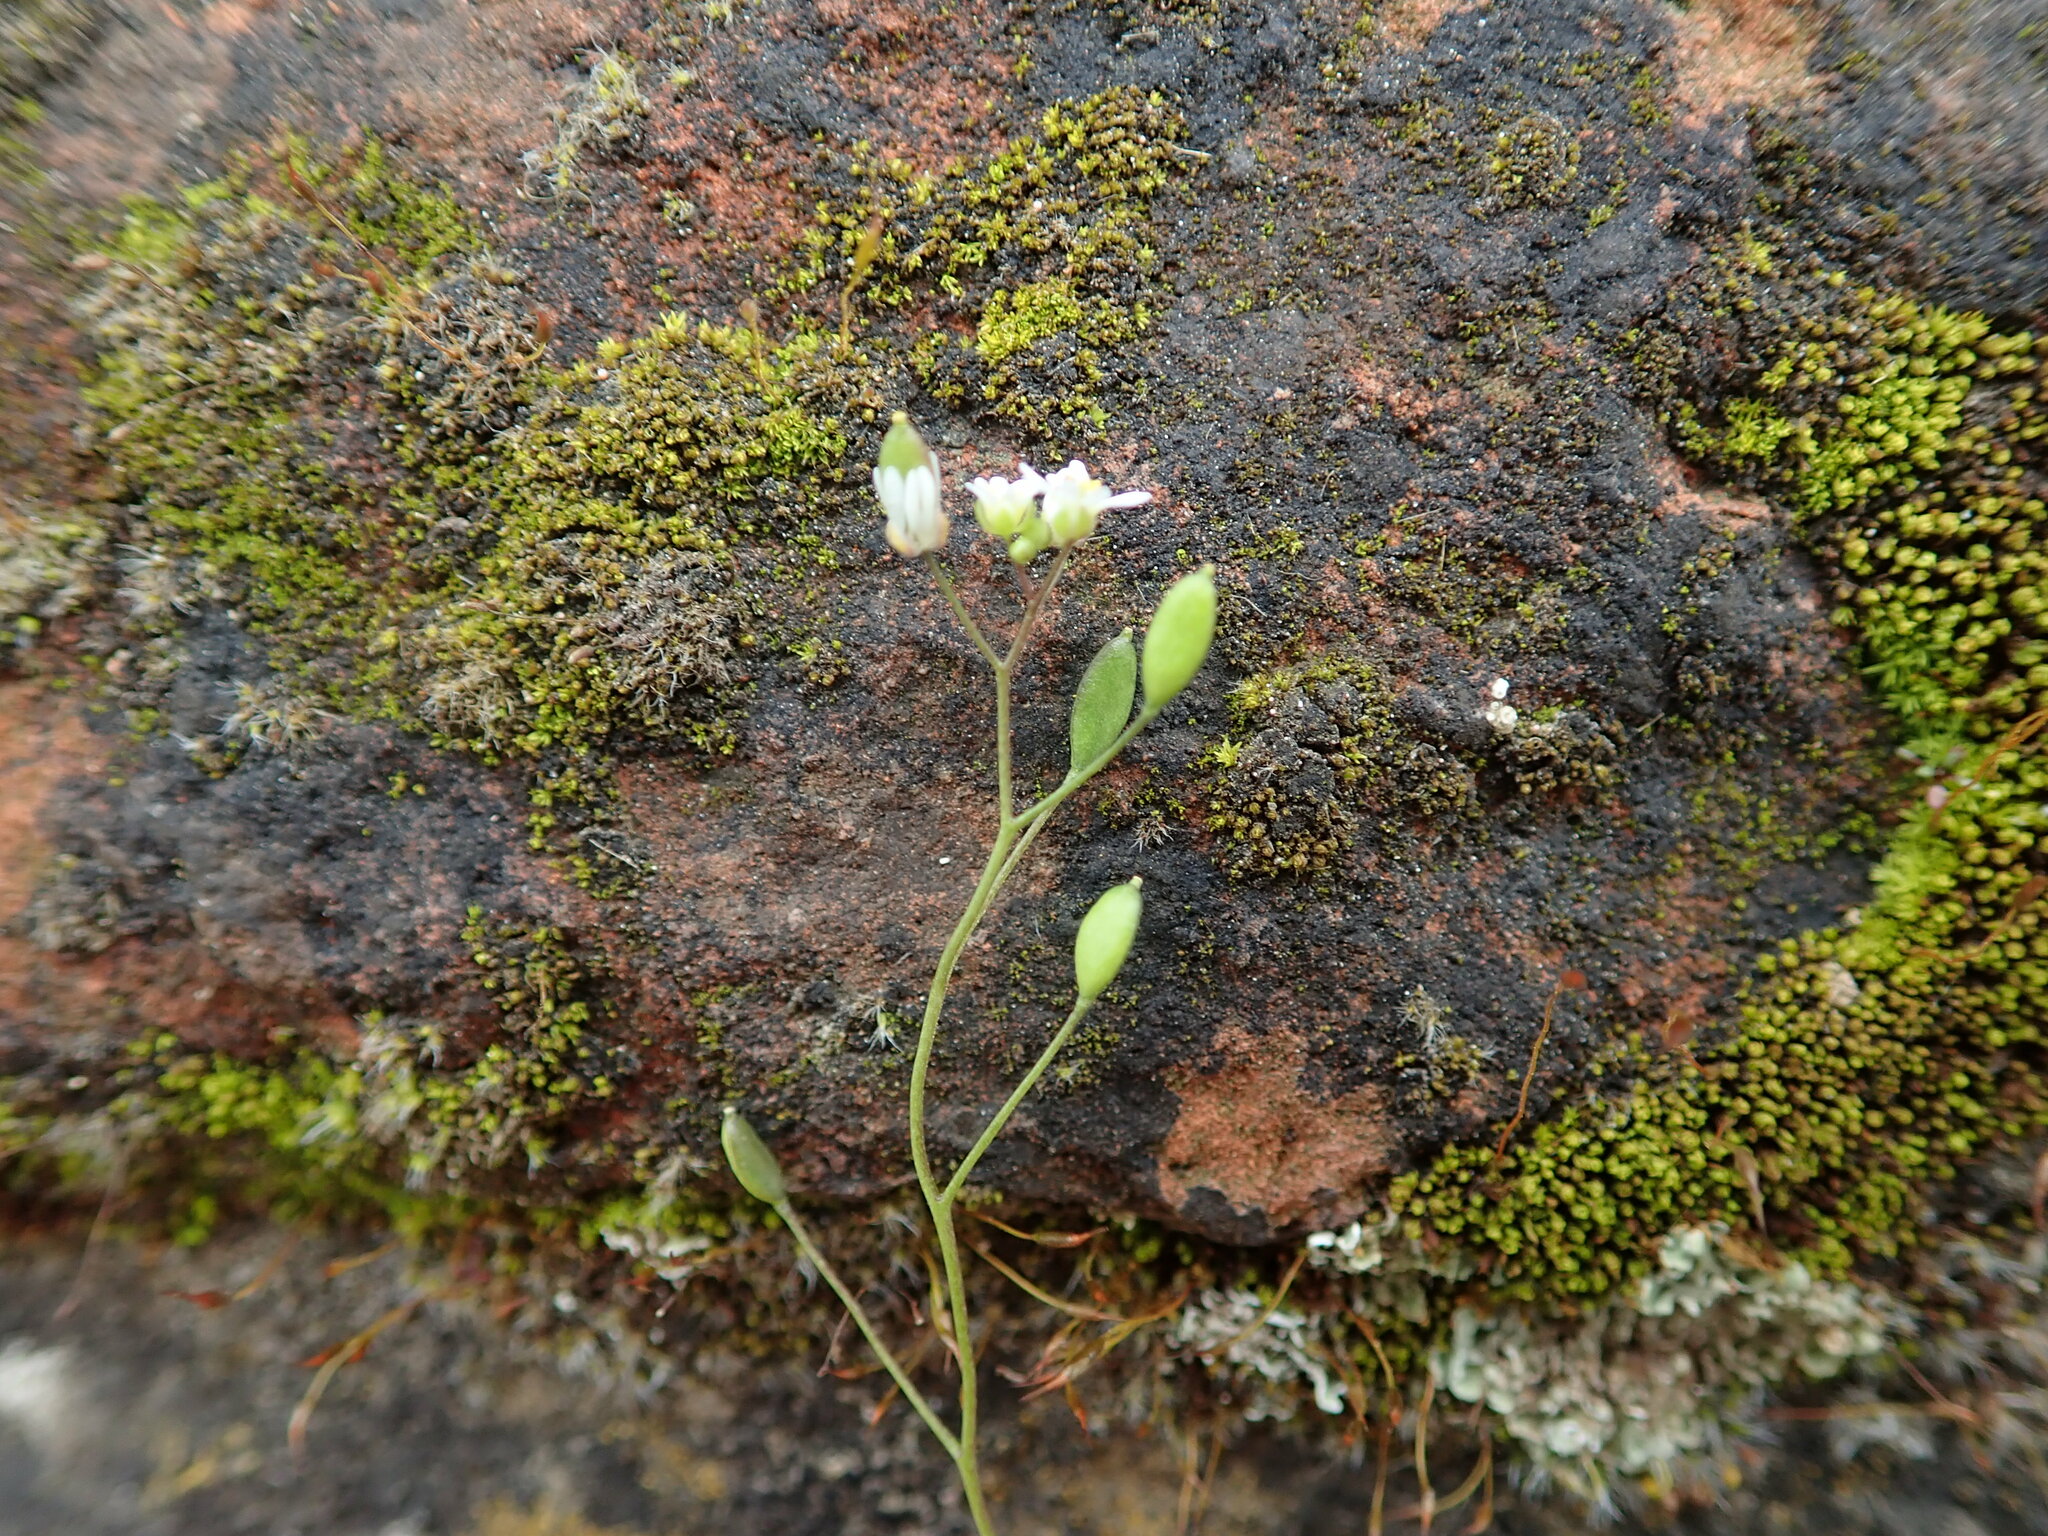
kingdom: Plantae
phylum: Tracheophyta
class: Magnoliopsida
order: Brassicales
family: Brassicaceae
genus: Draba
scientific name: Draba verna
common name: Spring draba
